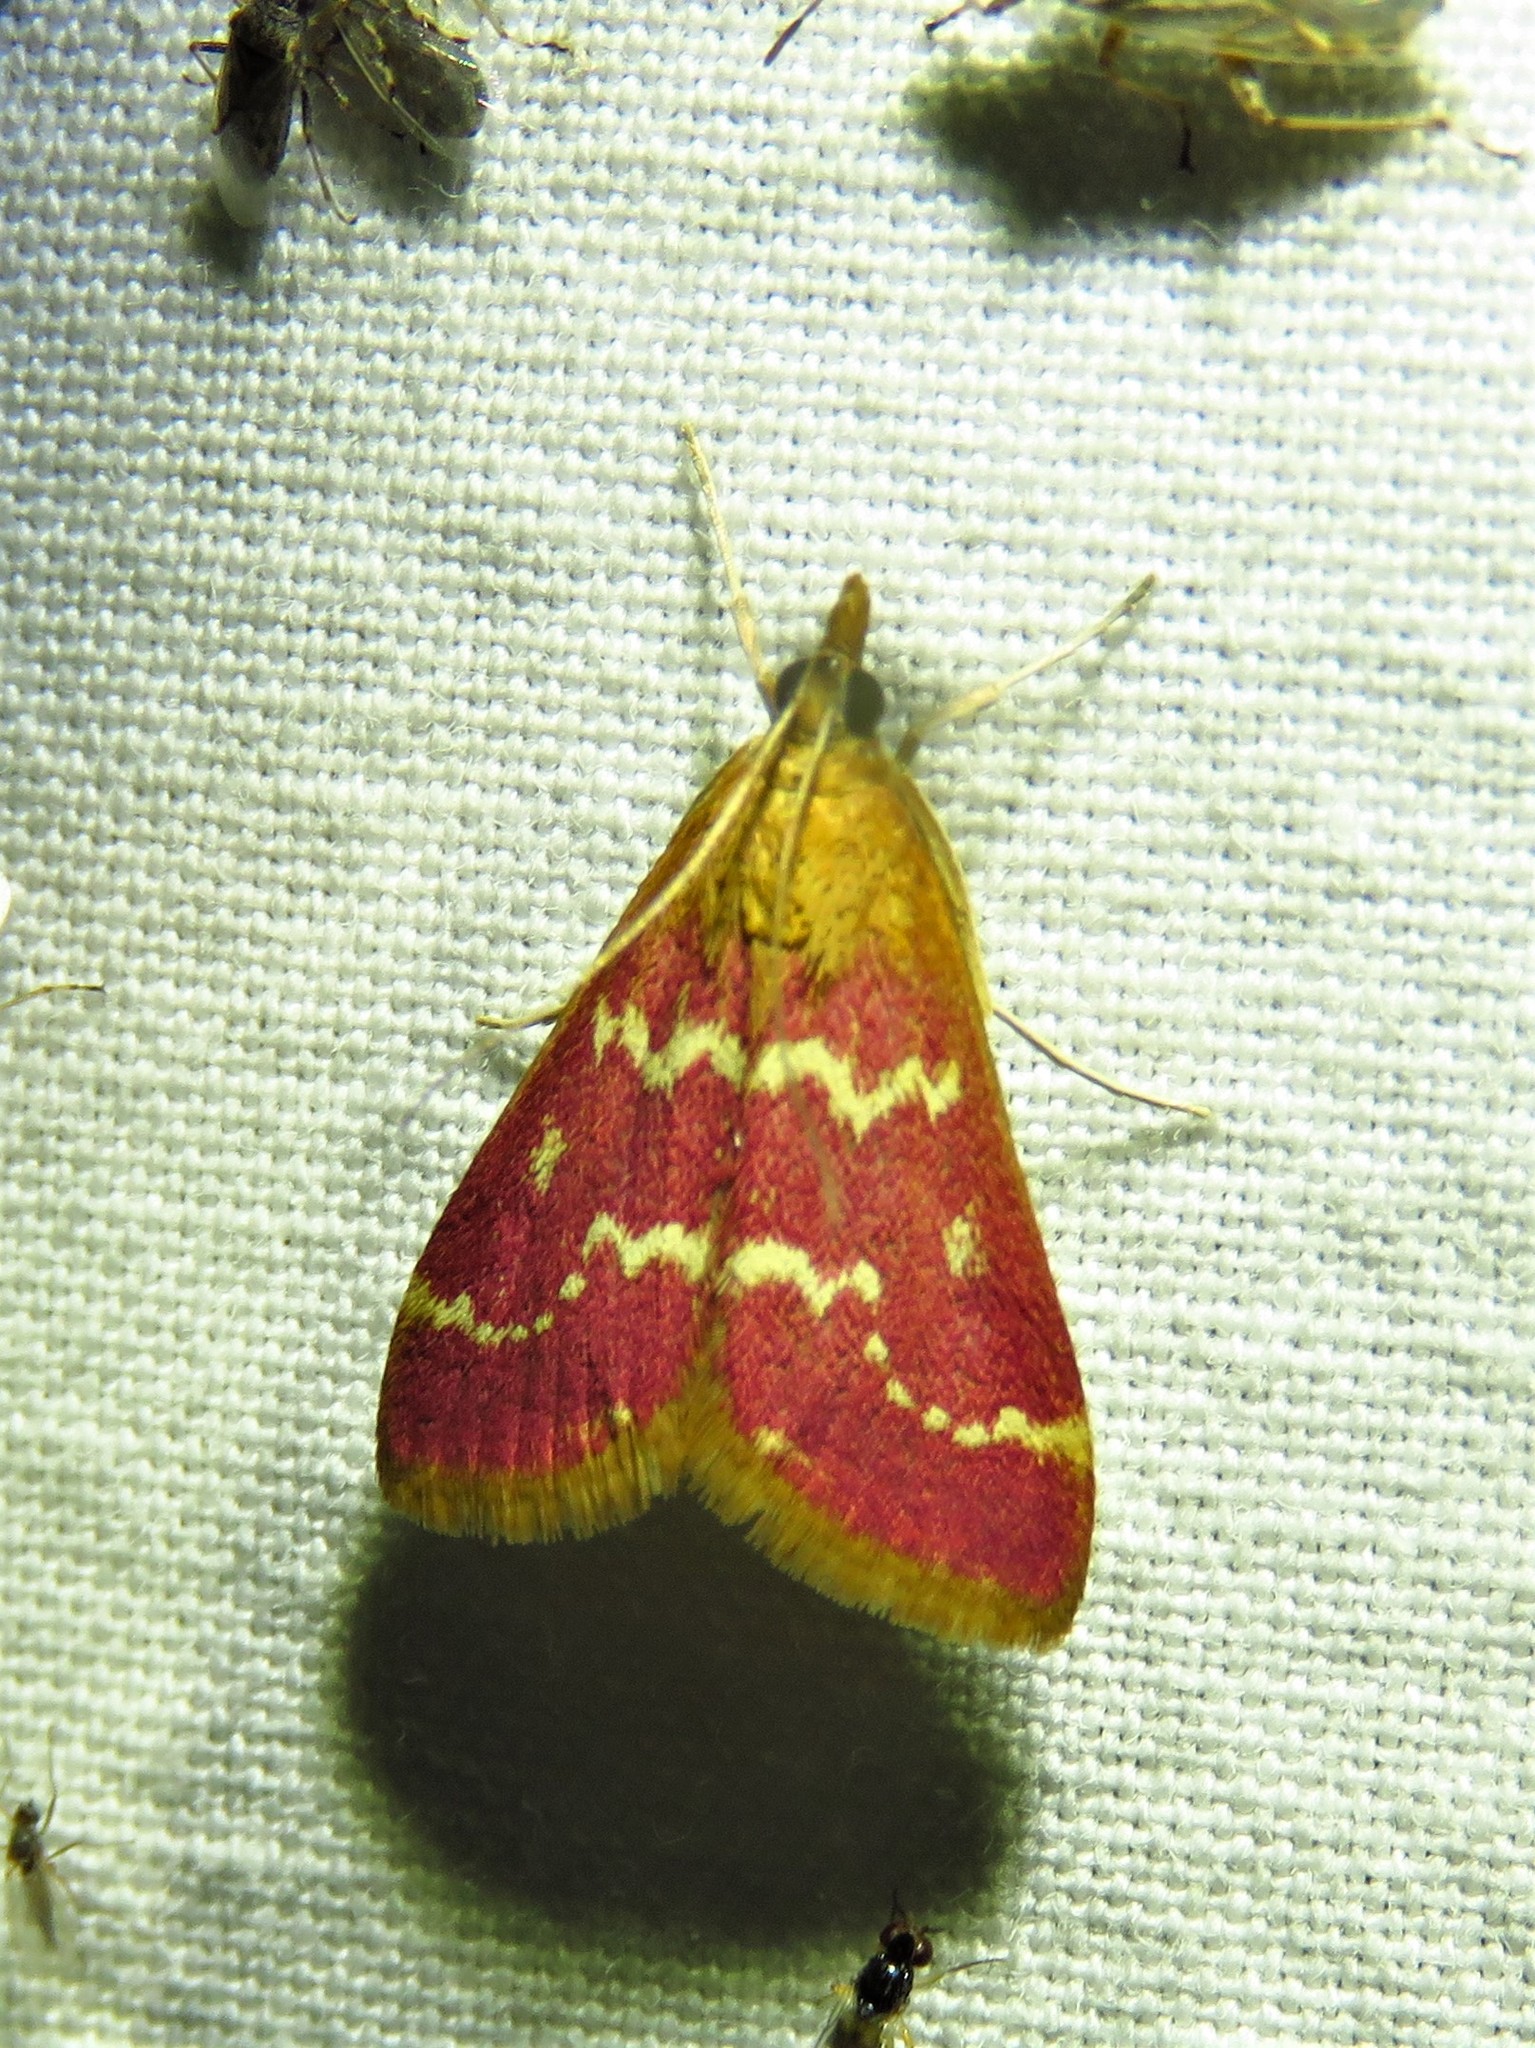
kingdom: Animalia
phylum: Arthropoda
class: Insecta
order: Lepidoptera
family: Crambidae
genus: Pyrausta
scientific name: Pyrausta signatalis
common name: Raspberry pyrausta moth
